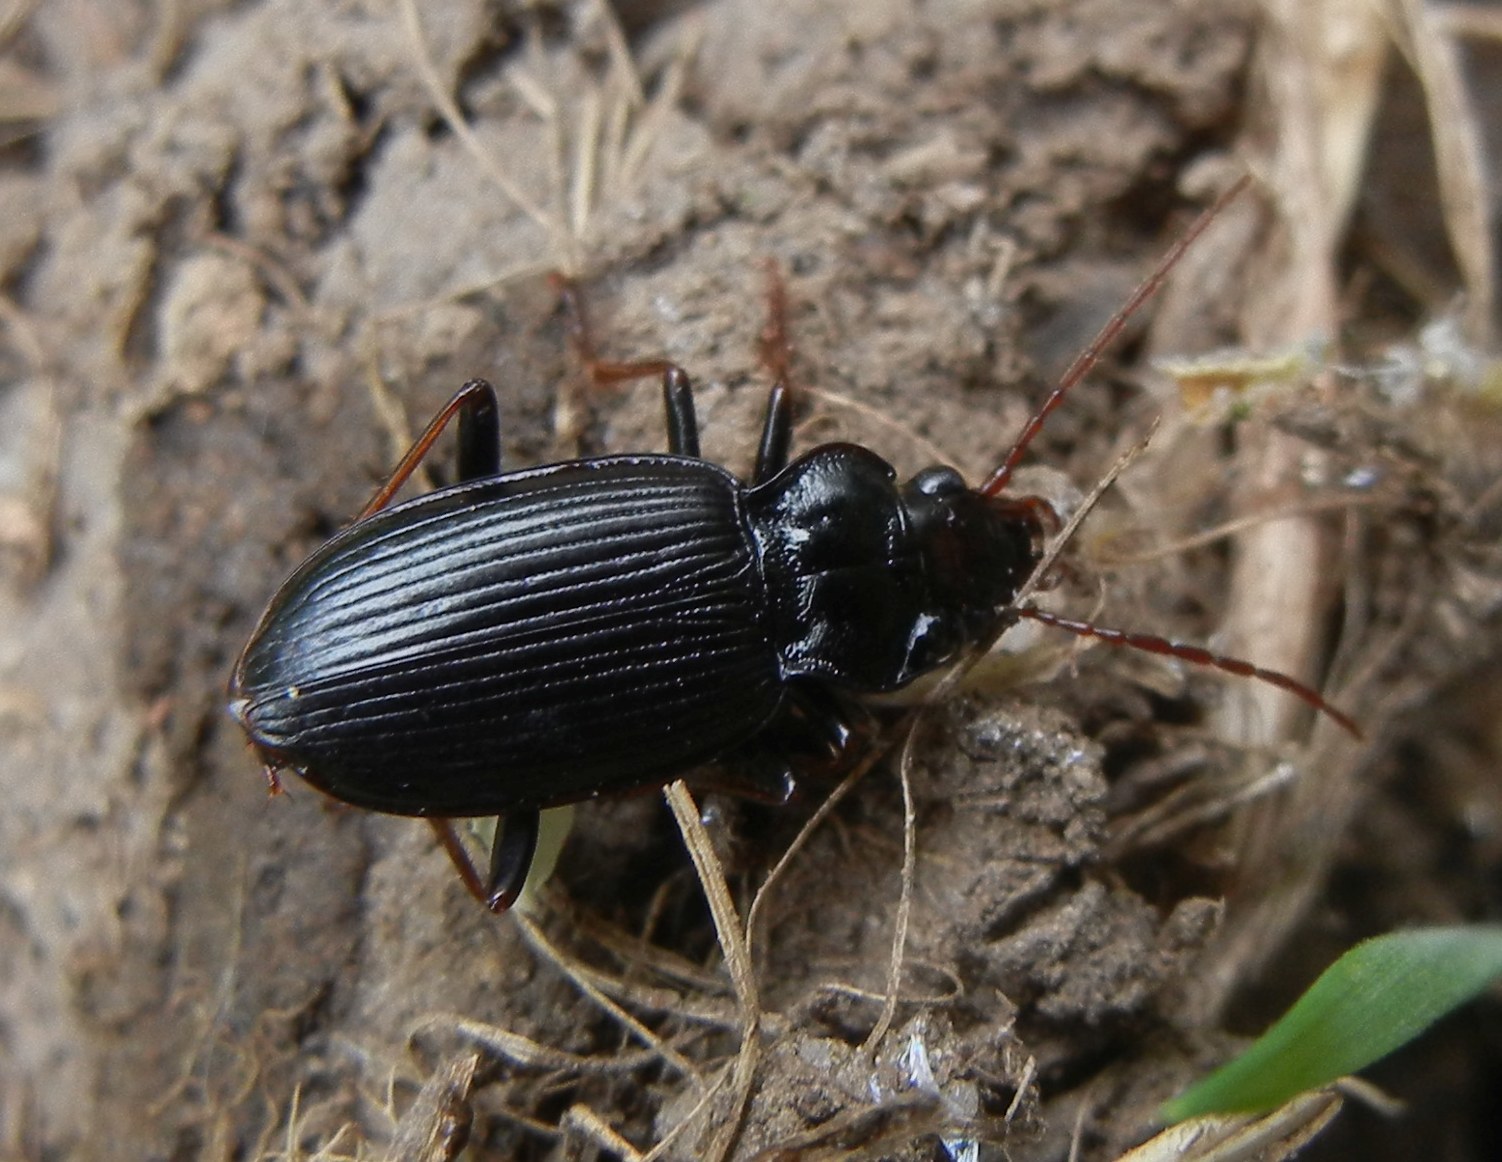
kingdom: Animalia
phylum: Arthropoda
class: Insecta
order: Coleoptera
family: Carabidae
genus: Nebria
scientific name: Nebria brevicollis
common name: Short-necked gazelle beetle
